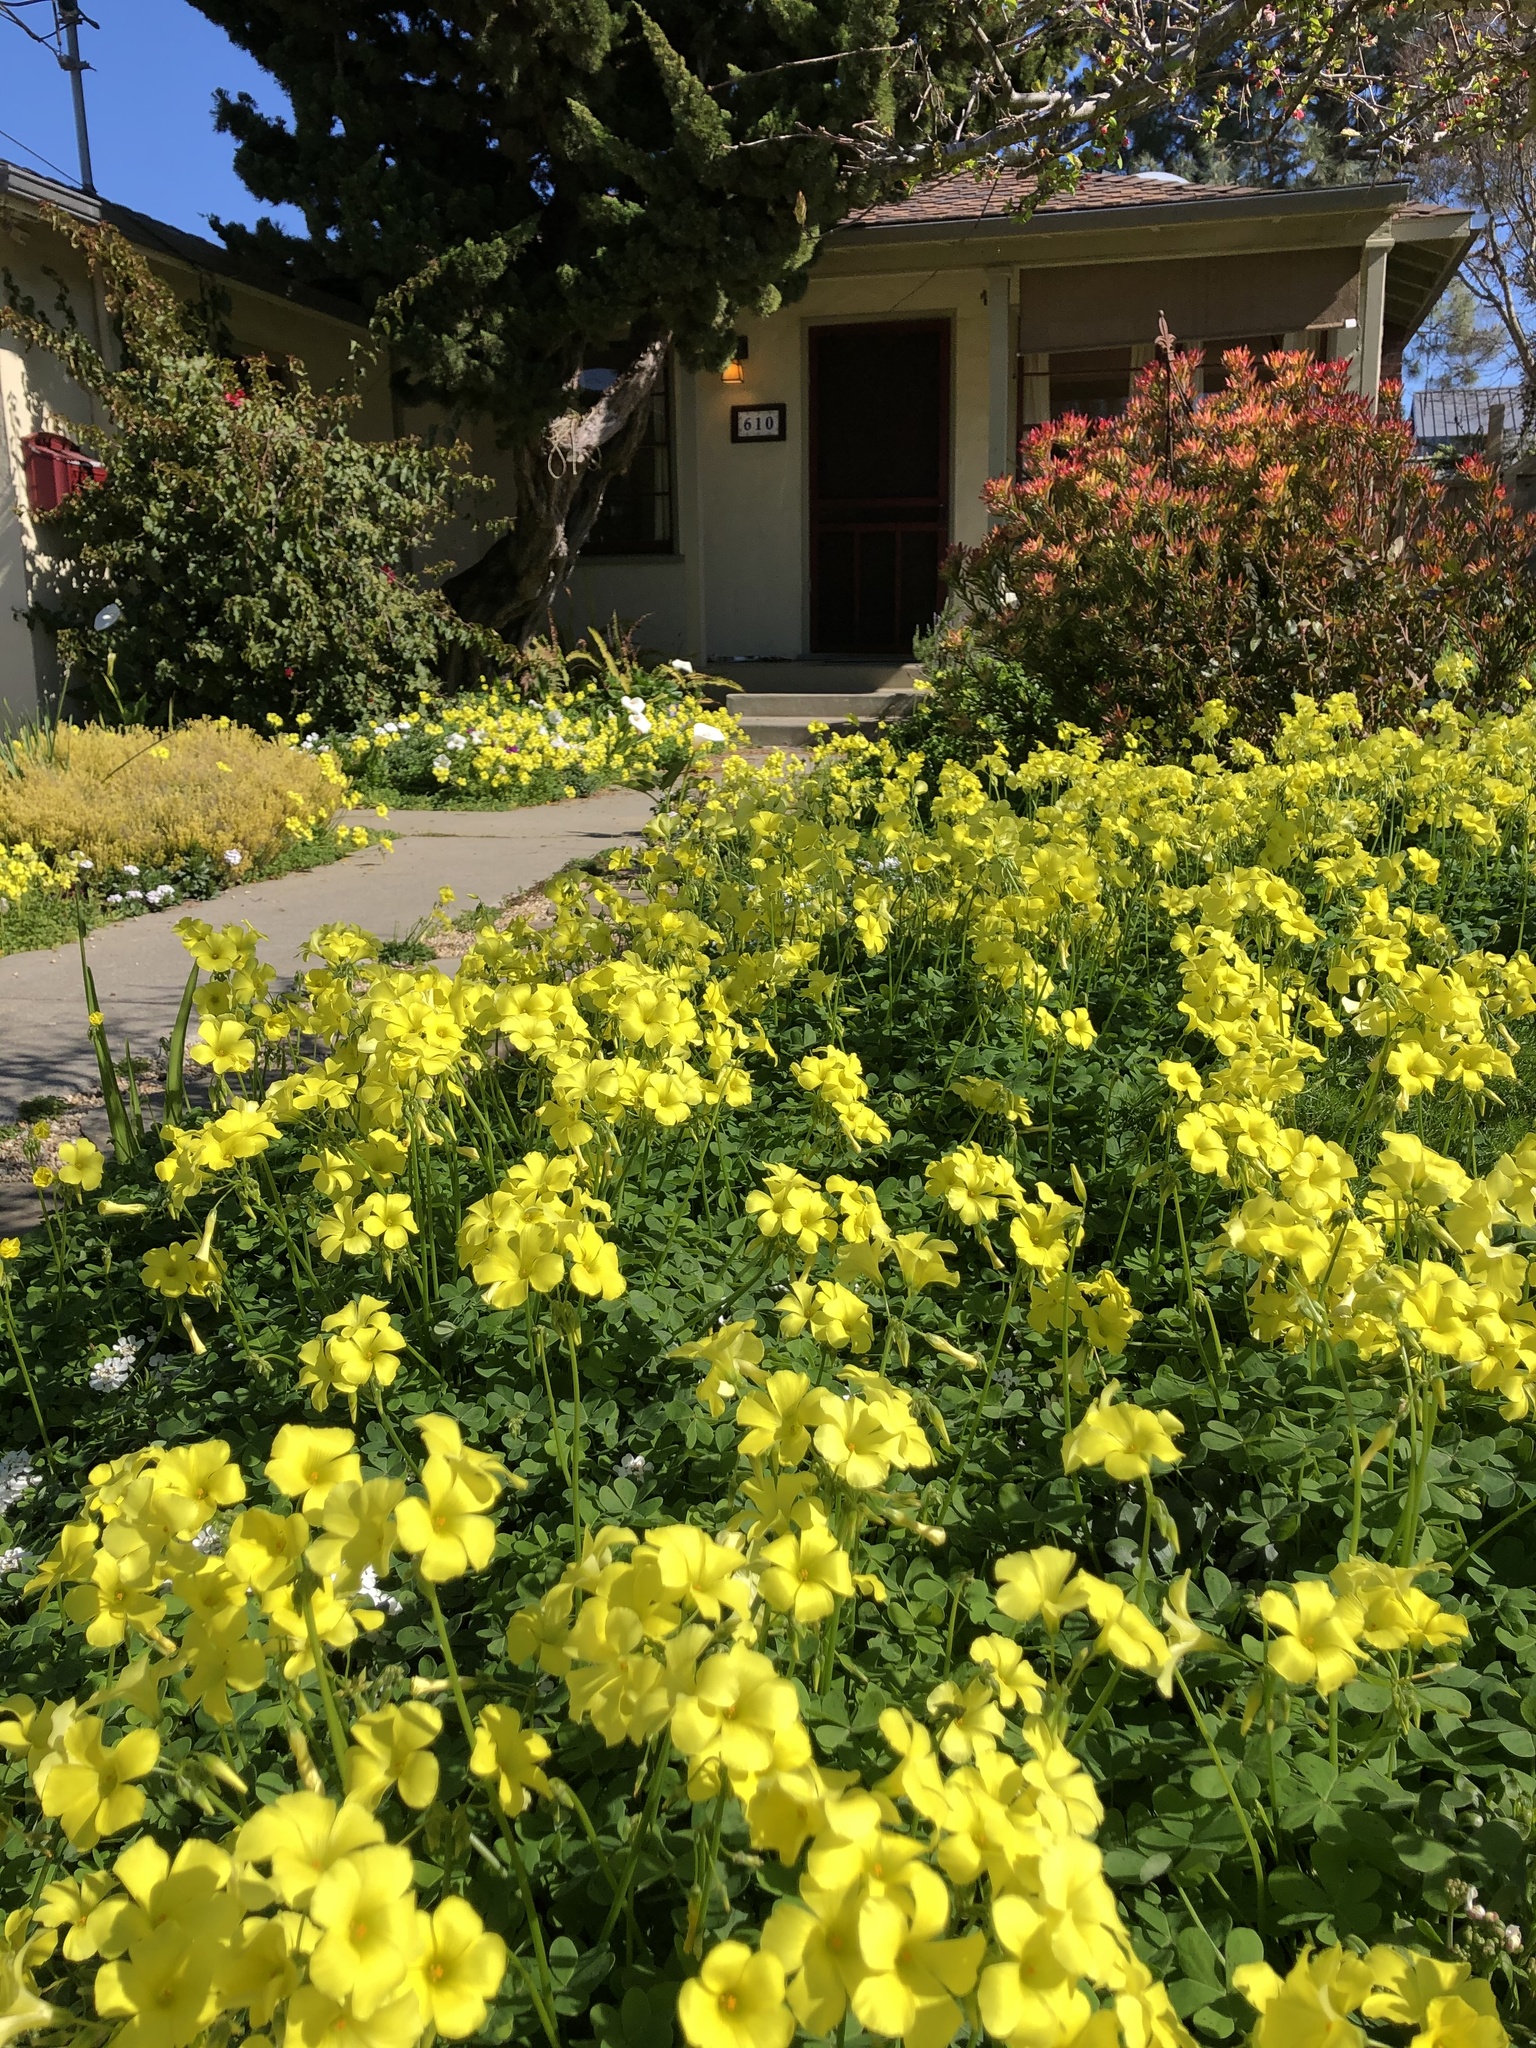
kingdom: Plantae
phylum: Tracheophyta
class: Magnoliopsida
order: Oxalidales
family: Oxalidaceae
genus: Oxalis
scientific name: Oxalis pes-caprae
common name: Bermuda-buttercup
